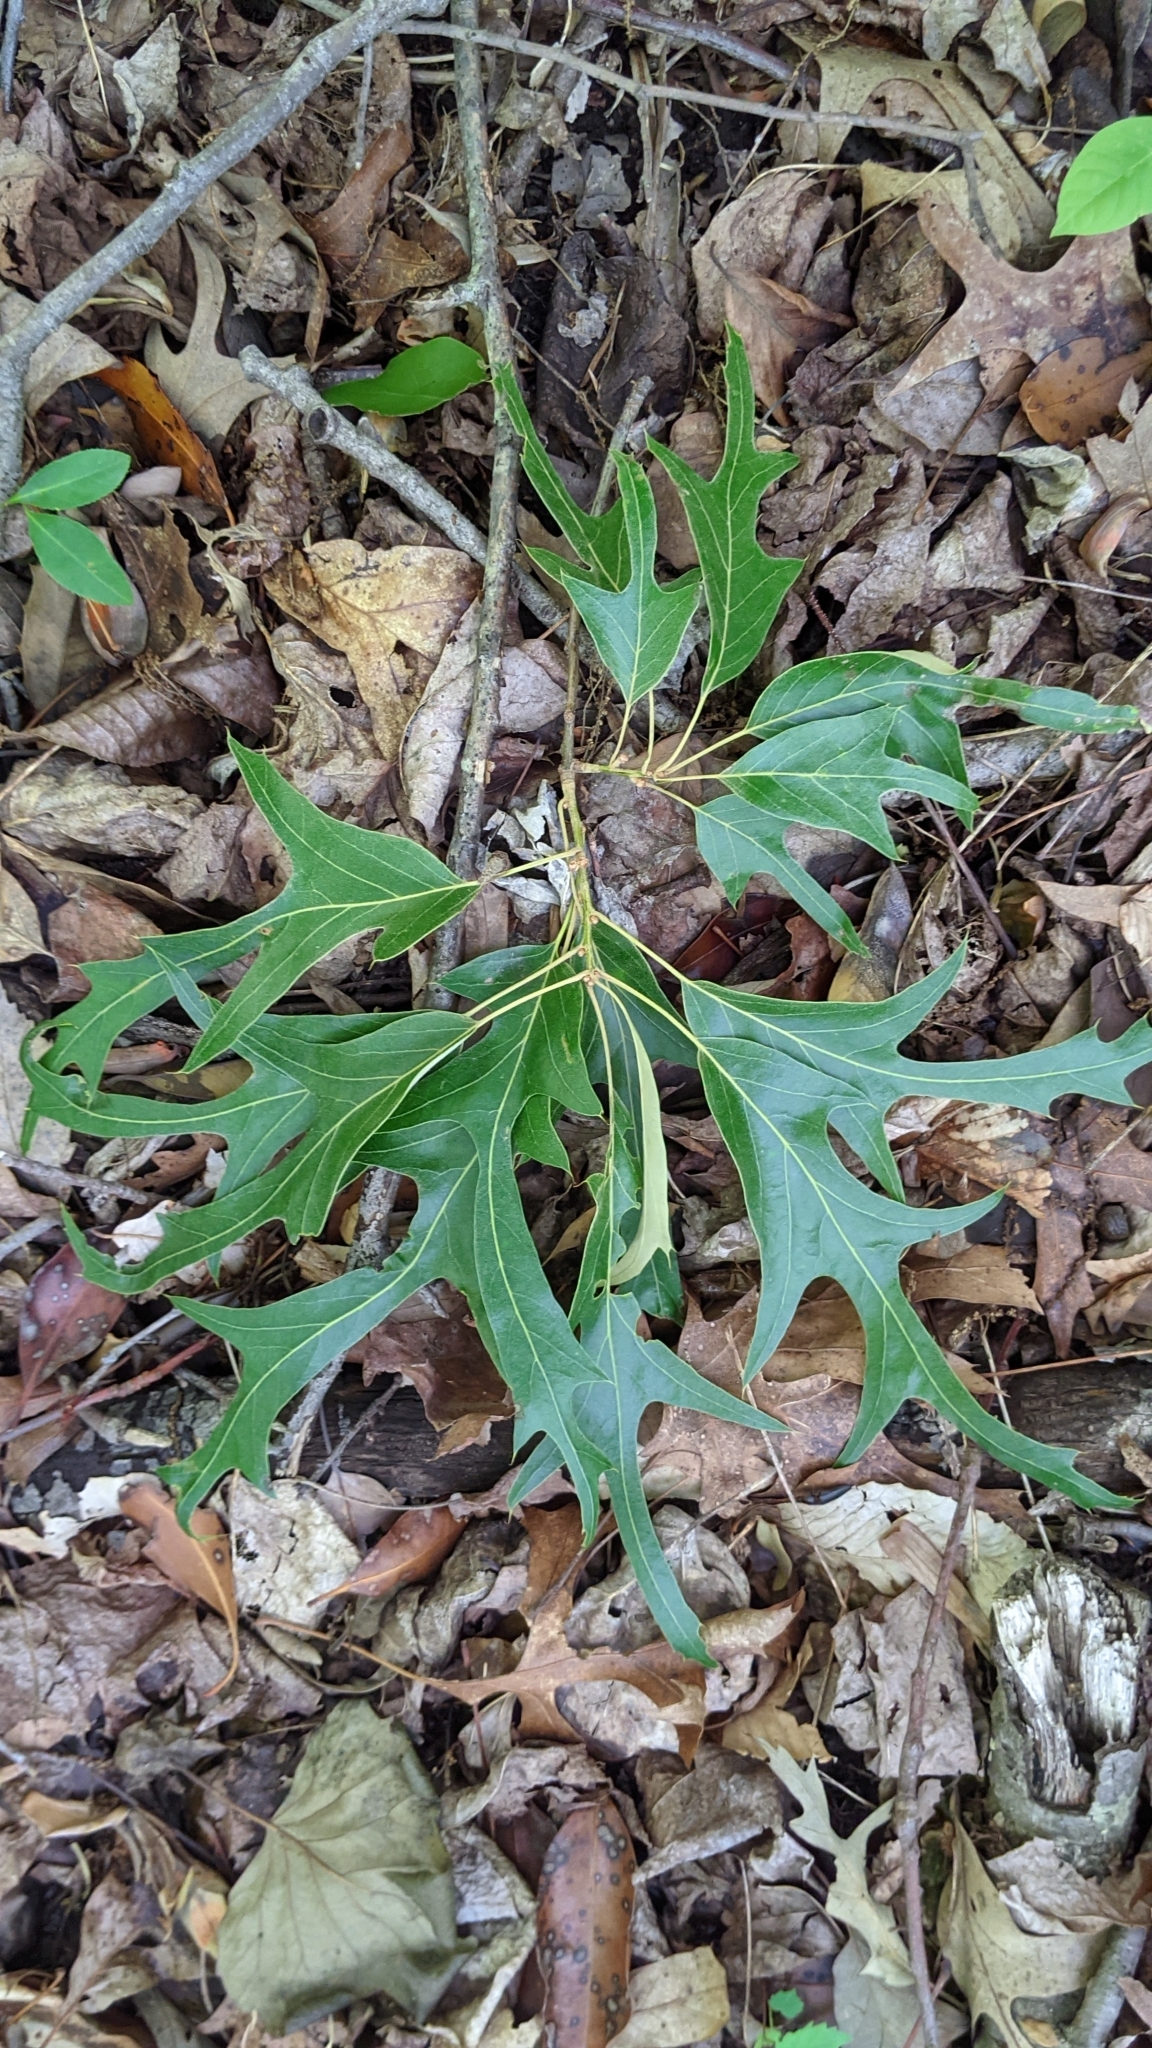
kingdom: Plantae
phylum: Tracheophyta
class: Magnoliopsida
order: Fagales
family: Fagaceae
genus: Quercus
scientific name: Quercus falcata
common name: Southern red oak
